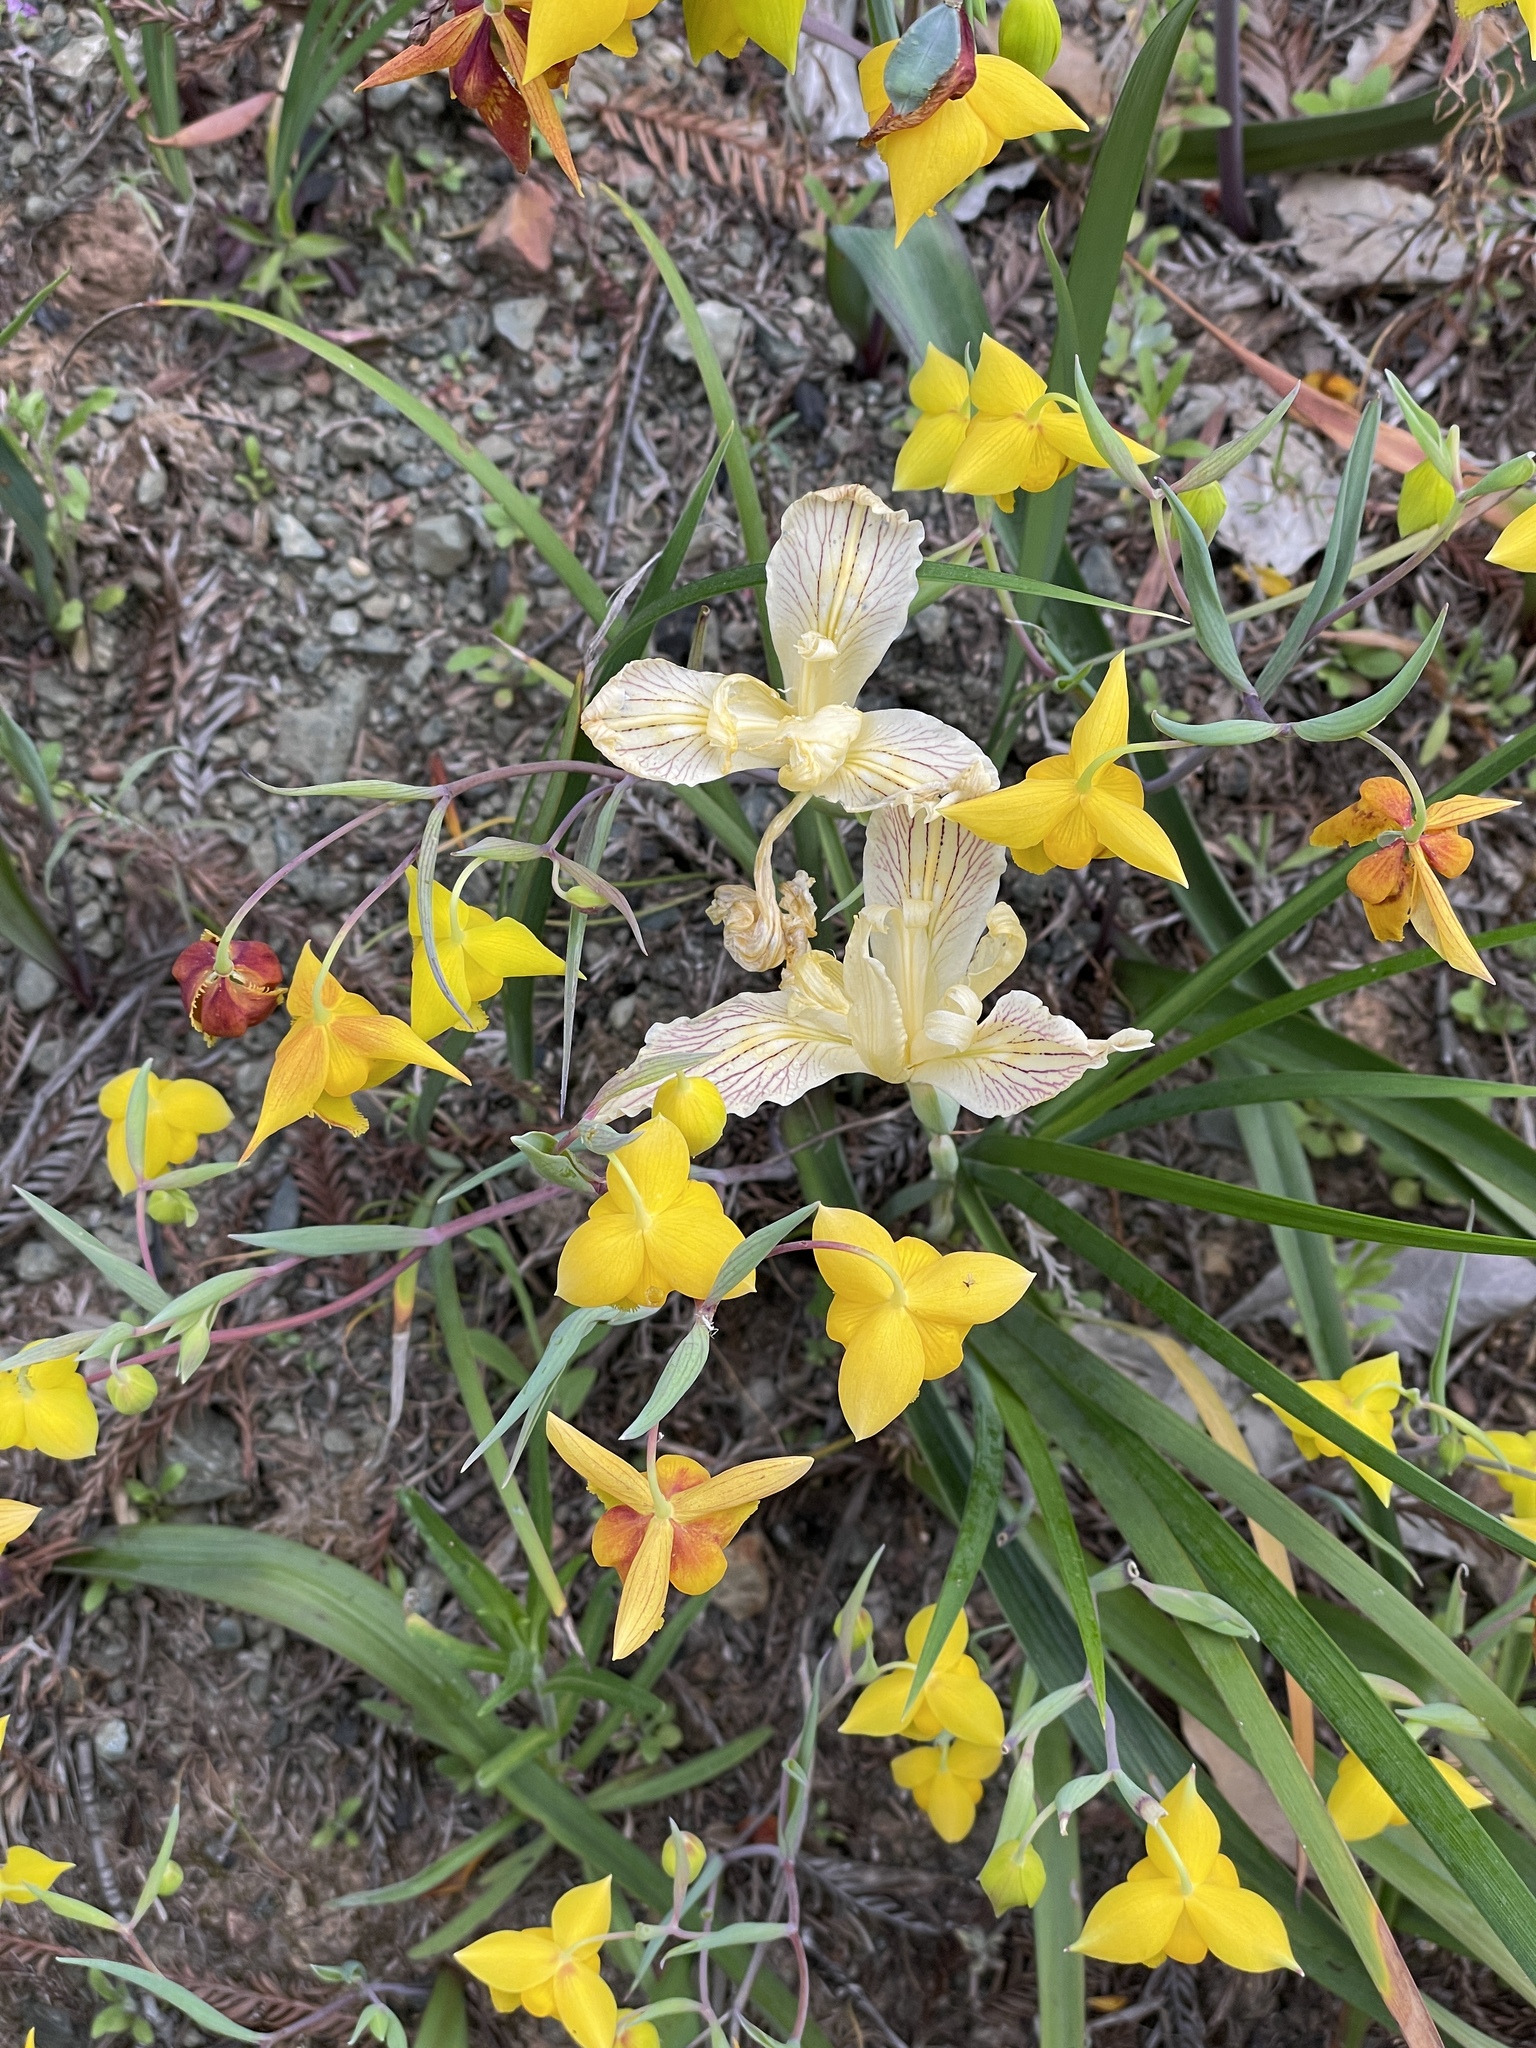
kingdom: Plantae
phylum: Tracheophyta
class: Liliopsida
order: Asparagales
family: Iridaceae
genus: Iris
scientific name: Iris purdyi
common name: Purdy's iris
